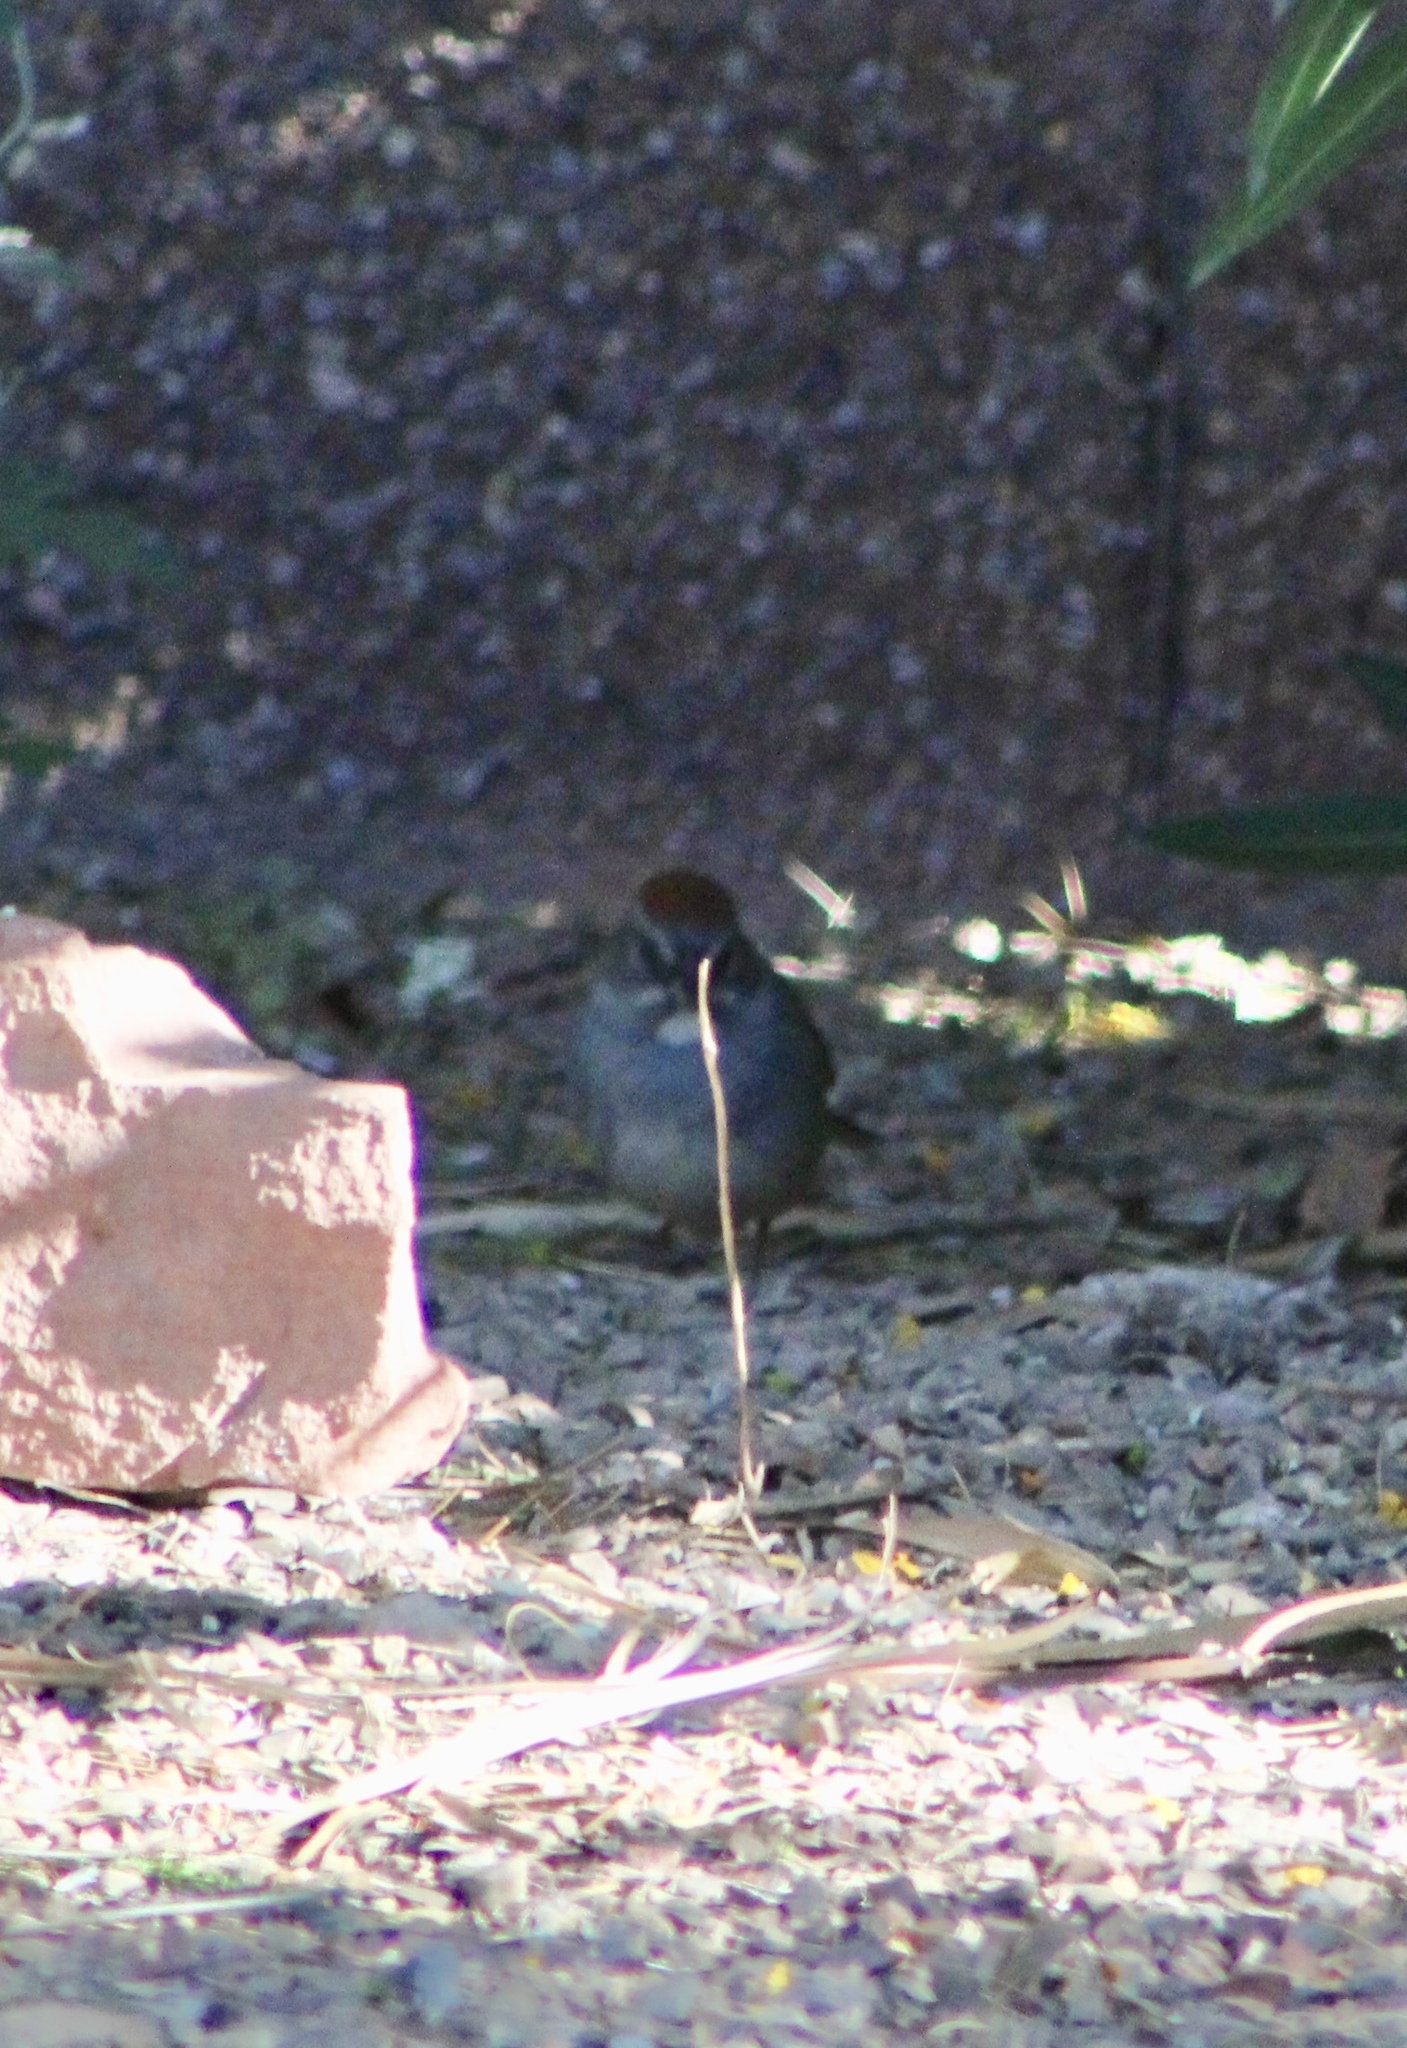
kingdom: Animalia
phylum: Chordata
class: Aves
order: Passeriformes
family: Passerellidae
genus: Pipilo
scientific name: Pipilo chlorurus
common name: Green-tailed towhee
